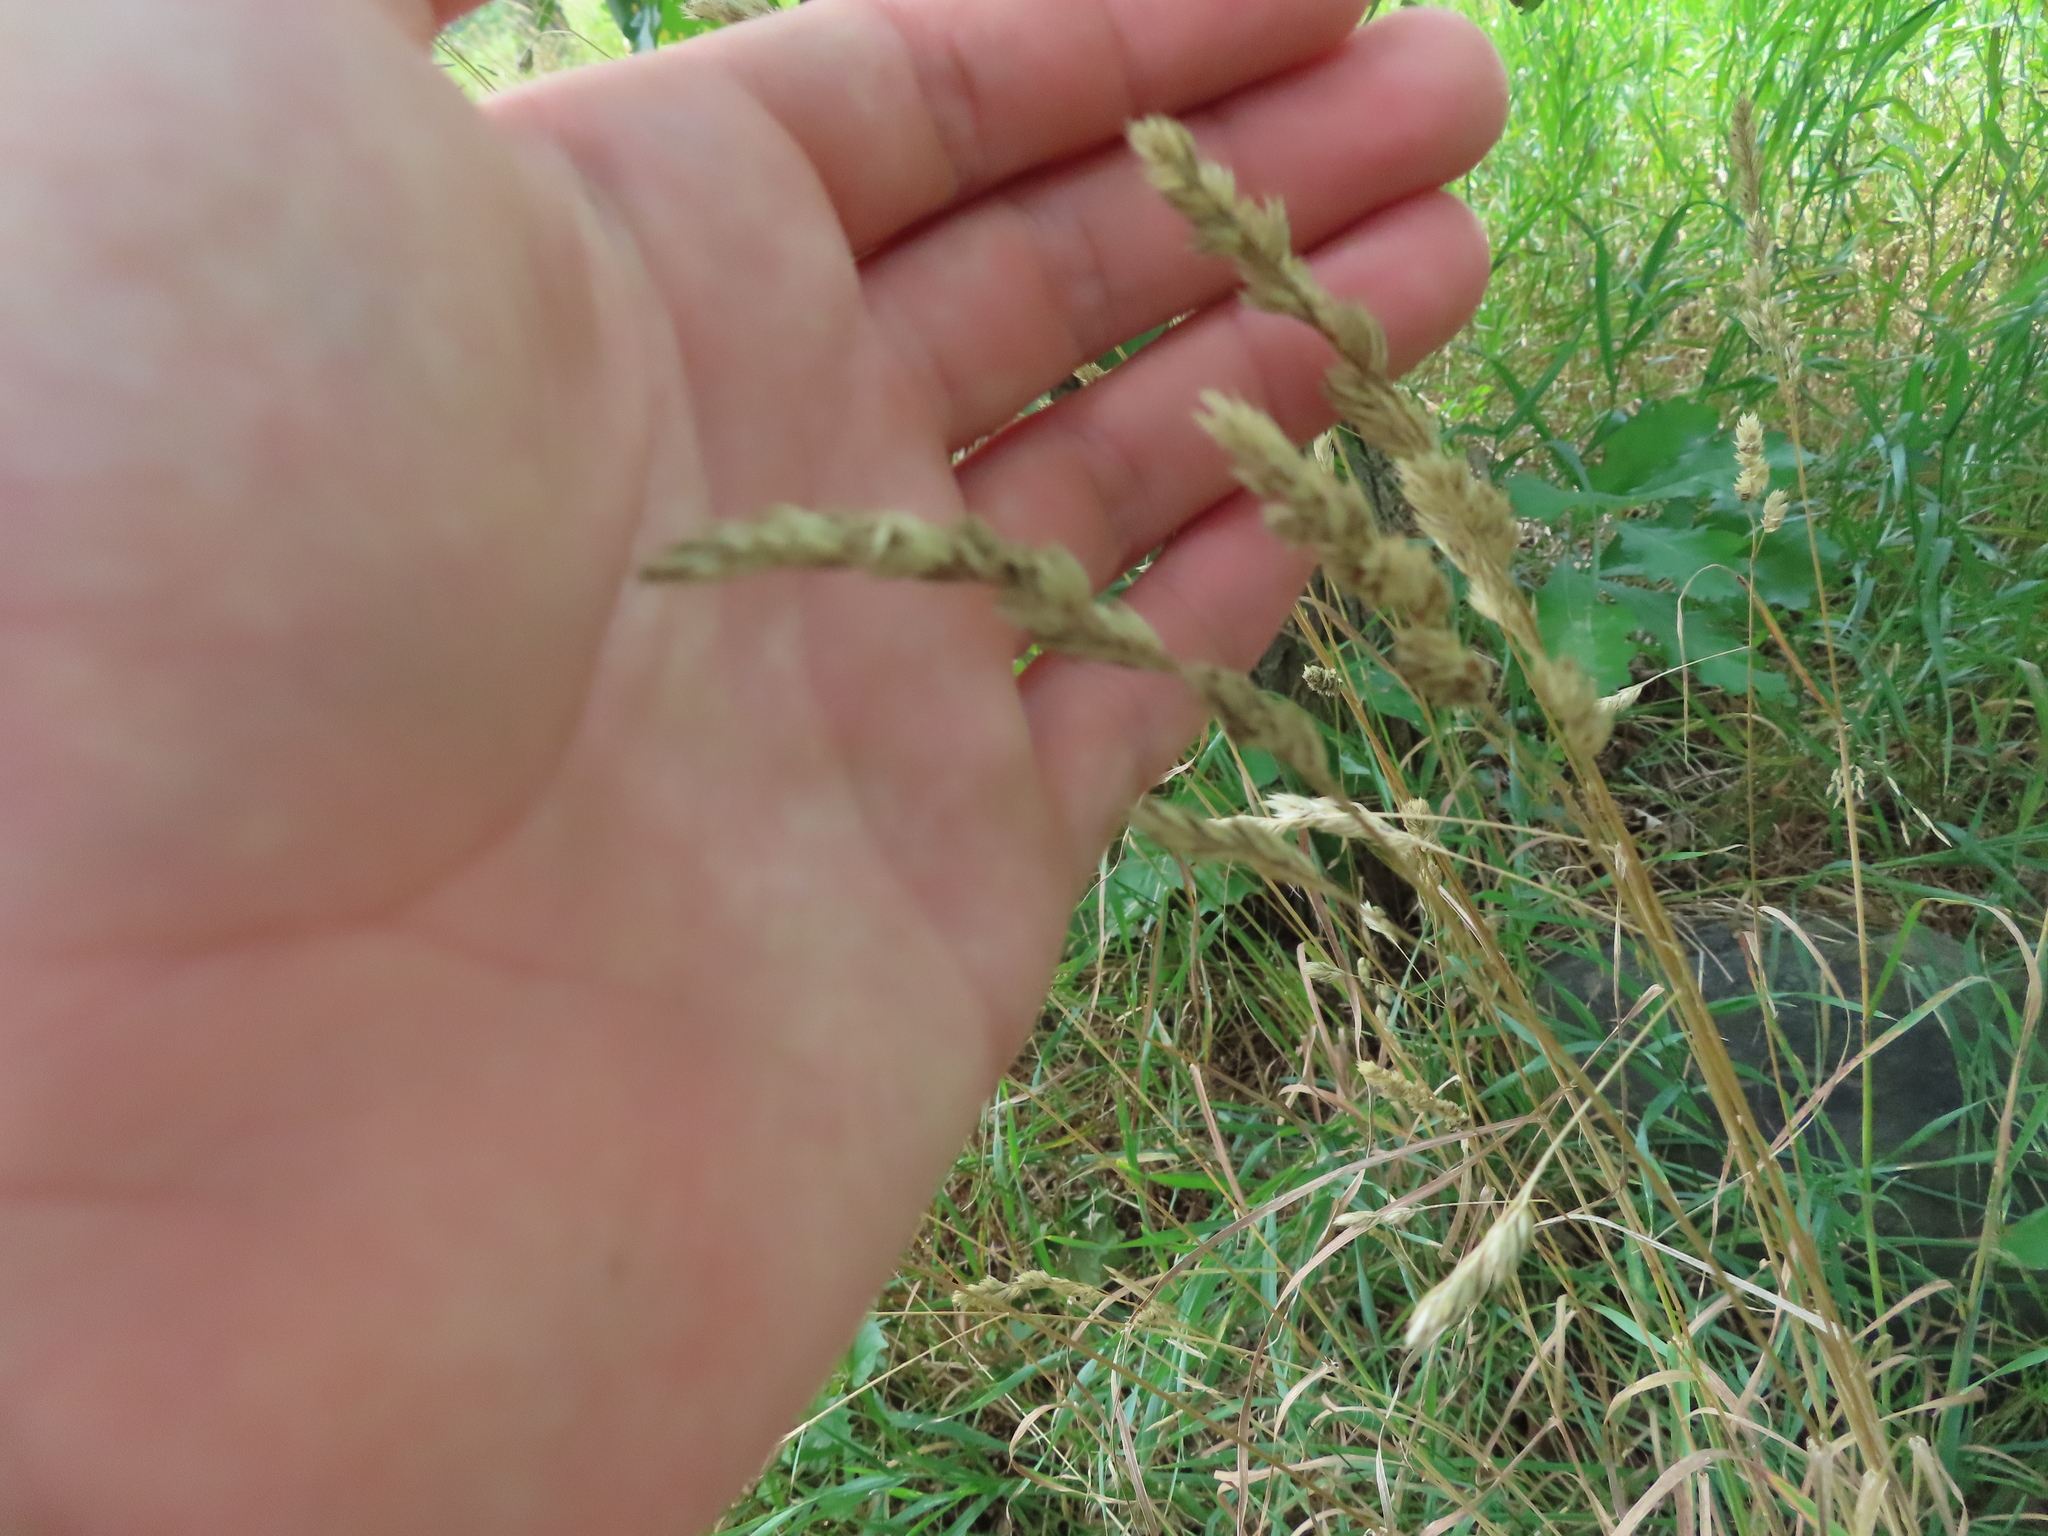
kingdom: Plantae
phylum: Tracheophyta
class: Liliopsida
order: Poales
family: Poaceae
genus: Dactylis
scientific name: Dactylis glomerata
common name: Orchardgrass
